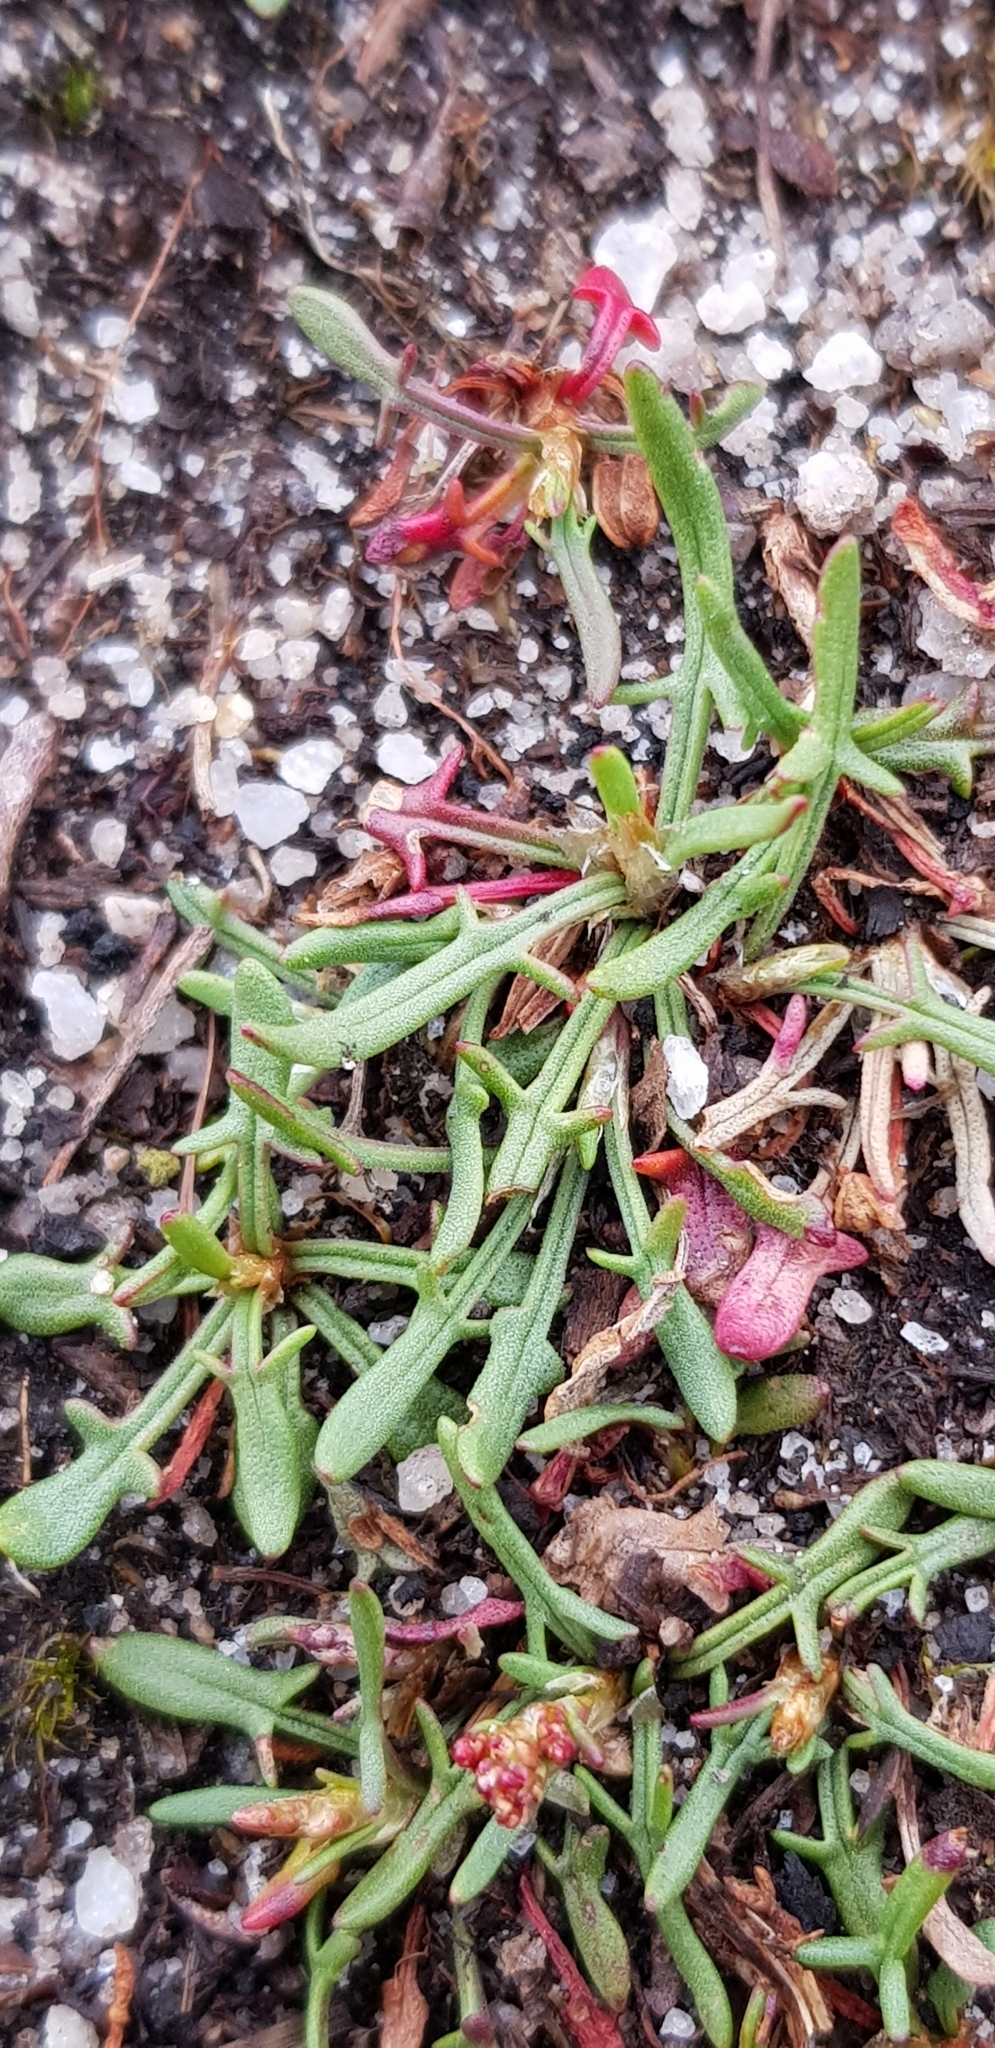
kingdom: Plantae
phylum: Tracheophyta
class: Magnoliopsida
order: Caryophyllales
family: Polygonaceae
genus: Rumex
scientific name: Rumex acetosella
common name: Common sheep sorrel
